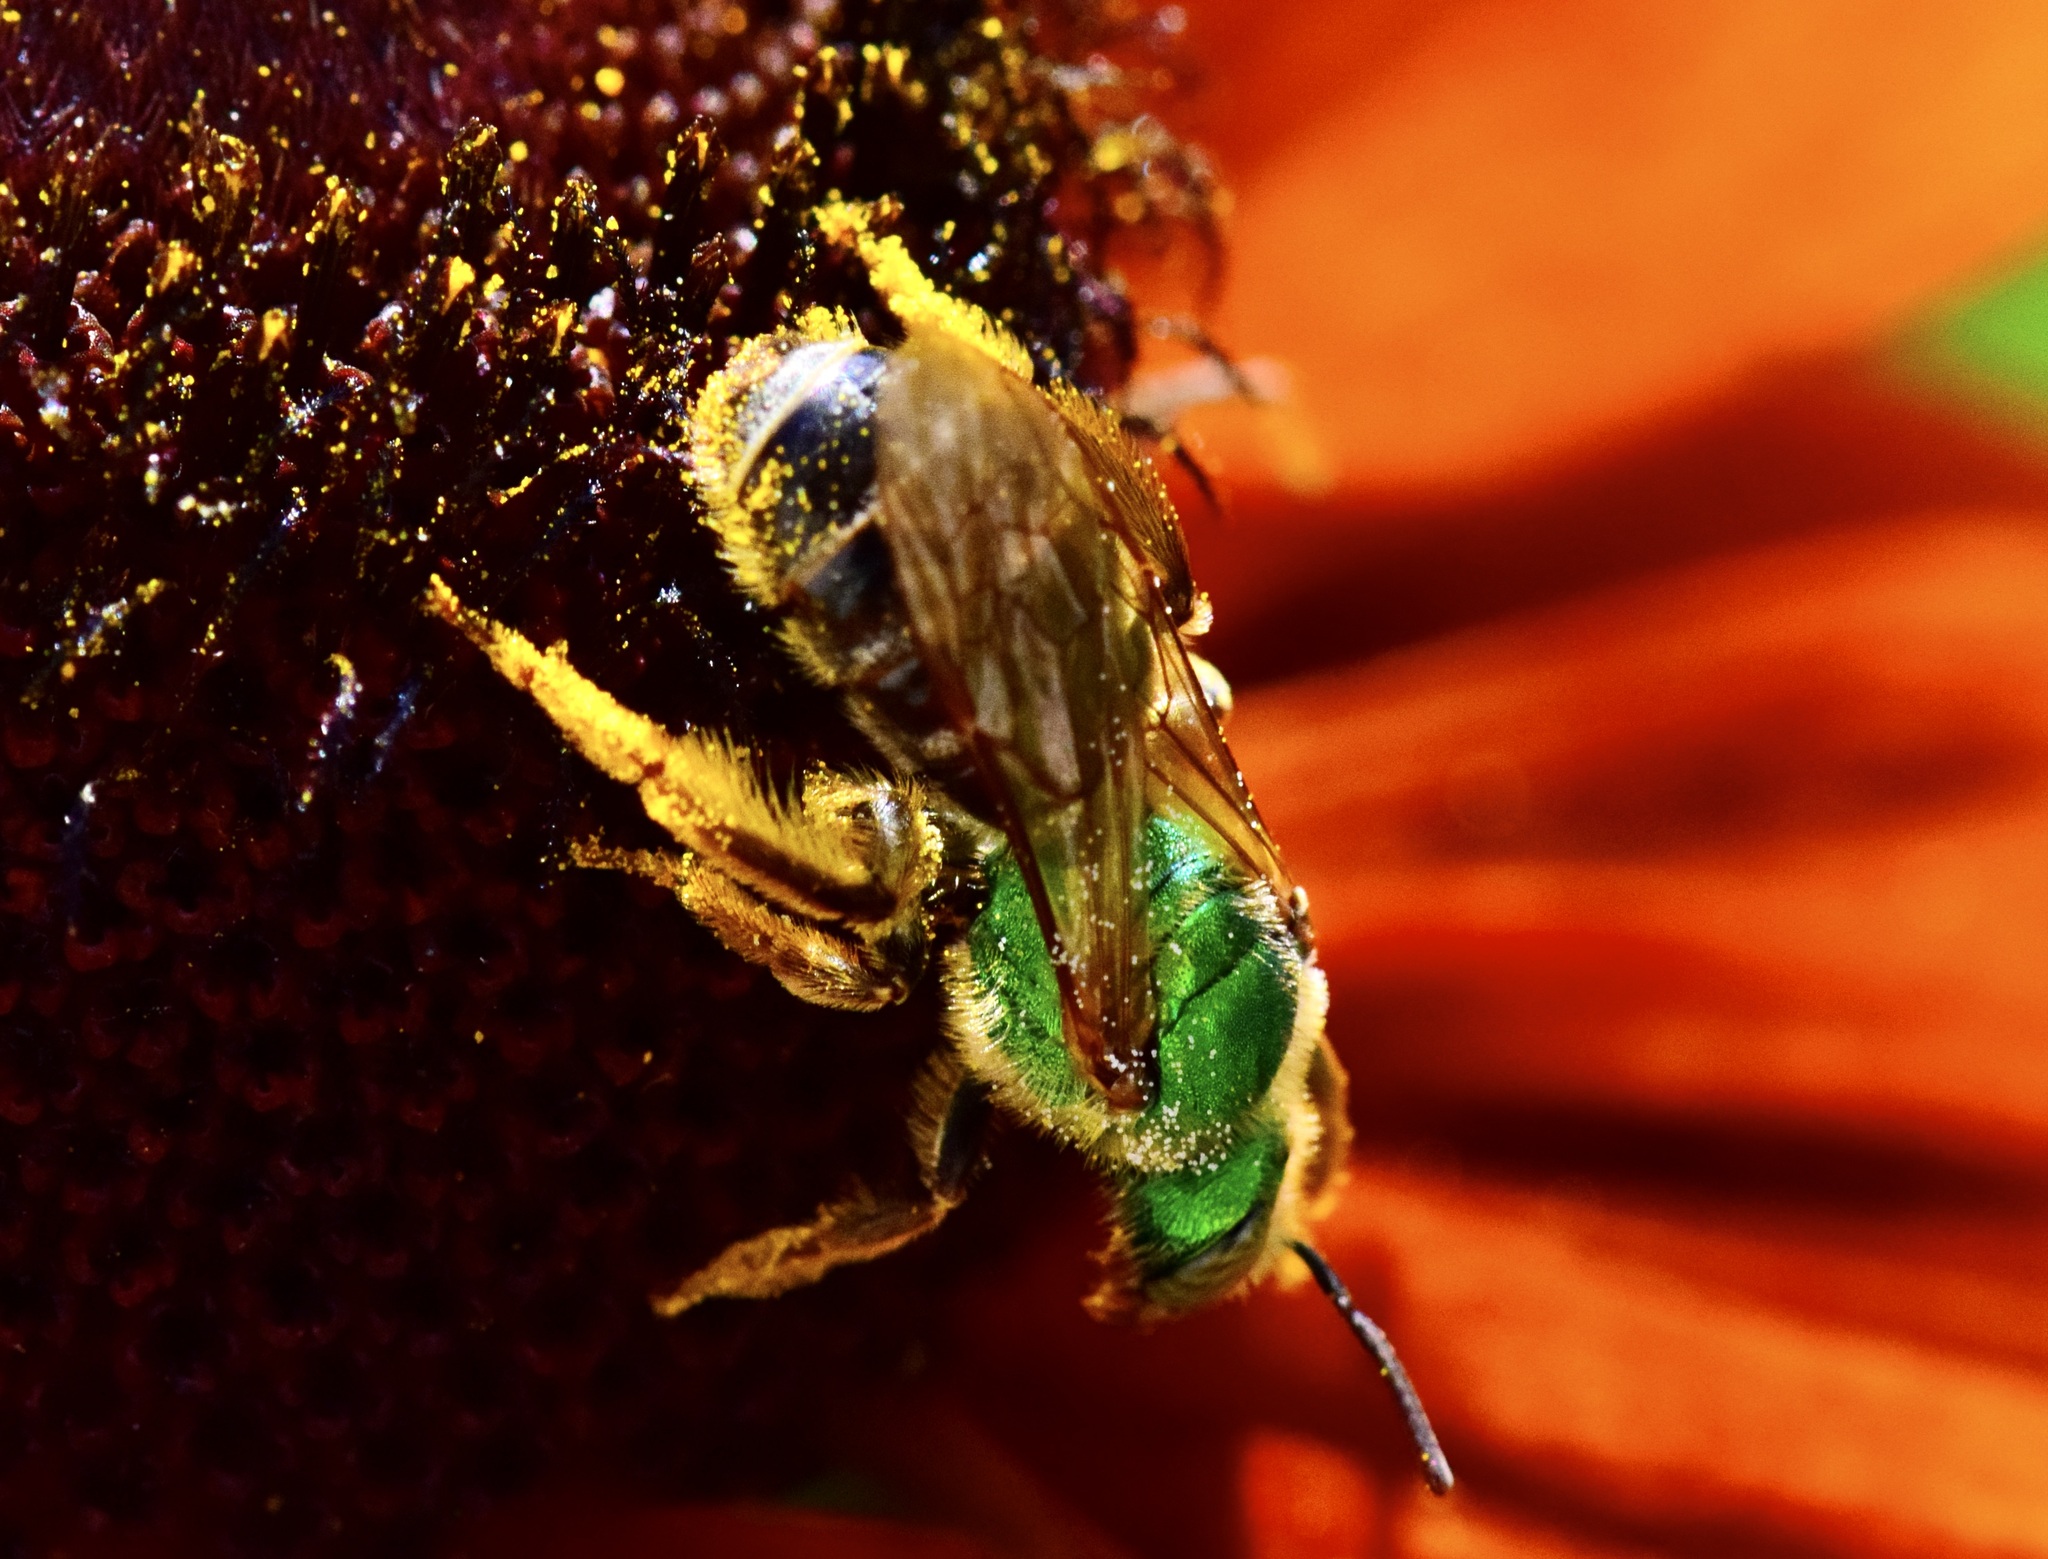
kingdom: Animalia
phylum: Arthropoda
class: Insecta
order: Hymenoptera
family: Halictidae
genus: Agapostemon
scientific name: Agapostemon virescens
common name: Bicolored striped sweat bee
